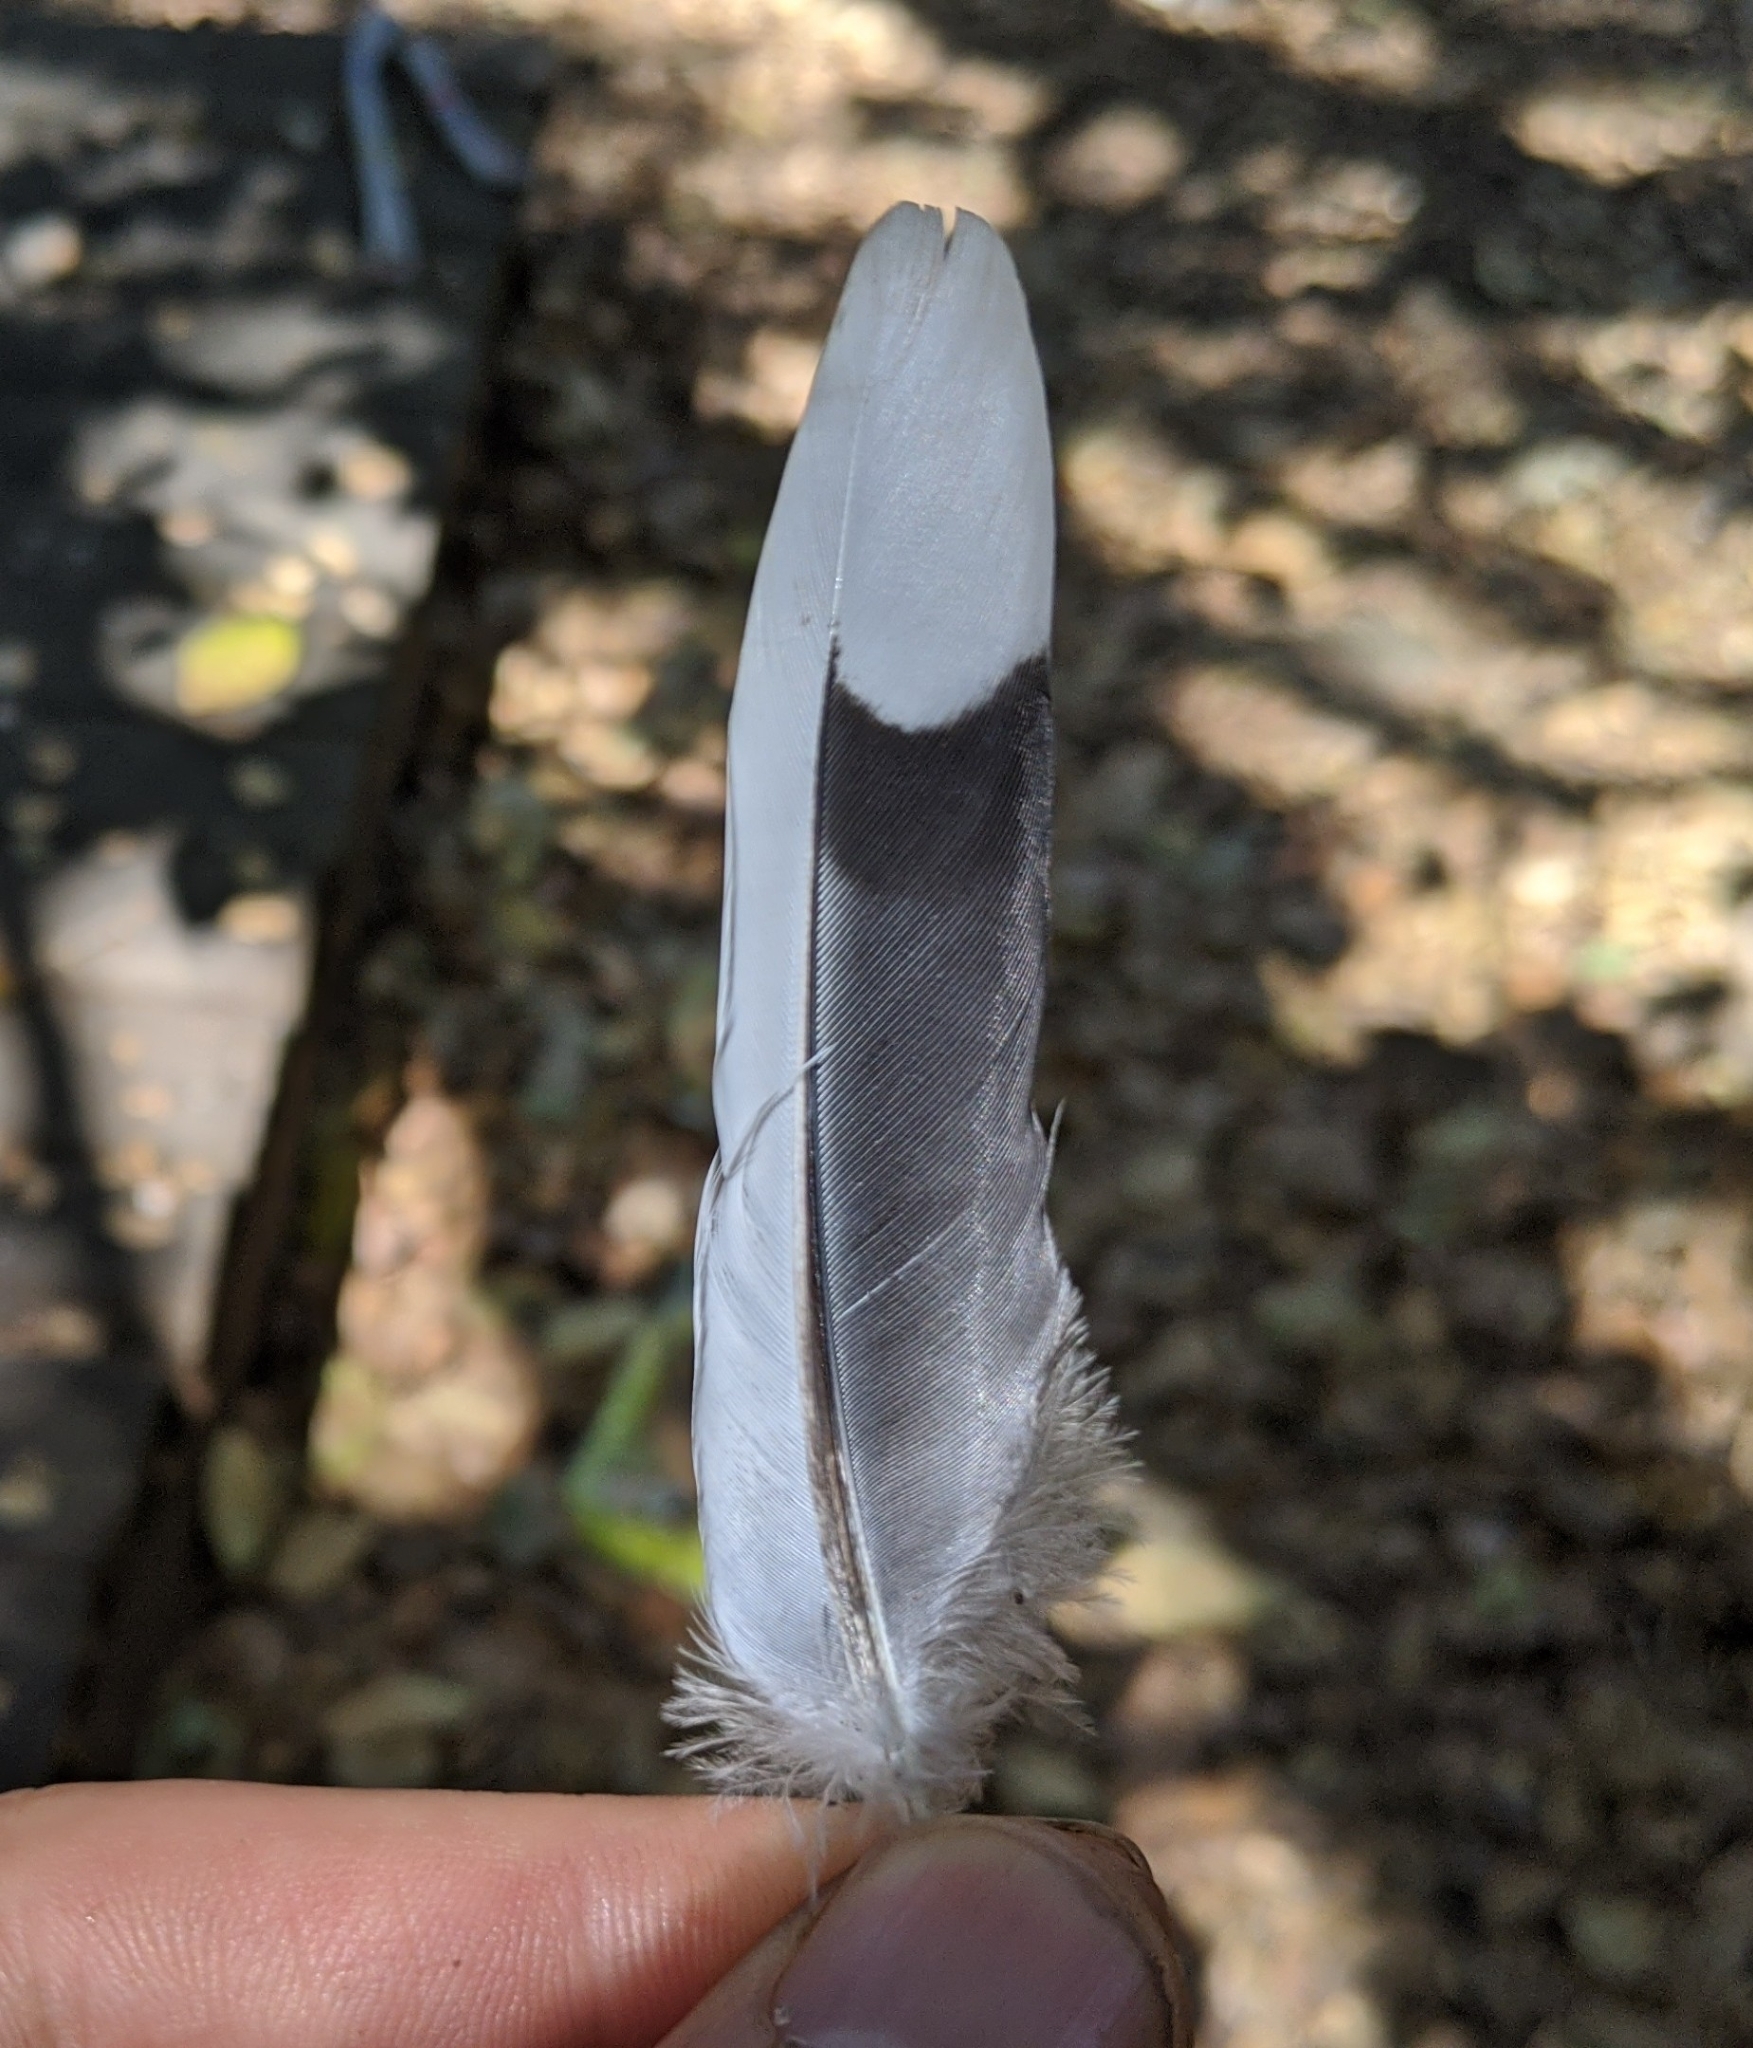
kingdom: Animalia
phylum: Chordata
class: Aves
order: Columbiformes
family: Columbidae
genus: Zenaida
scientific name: Zenaida macroura
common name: Mourning dove
